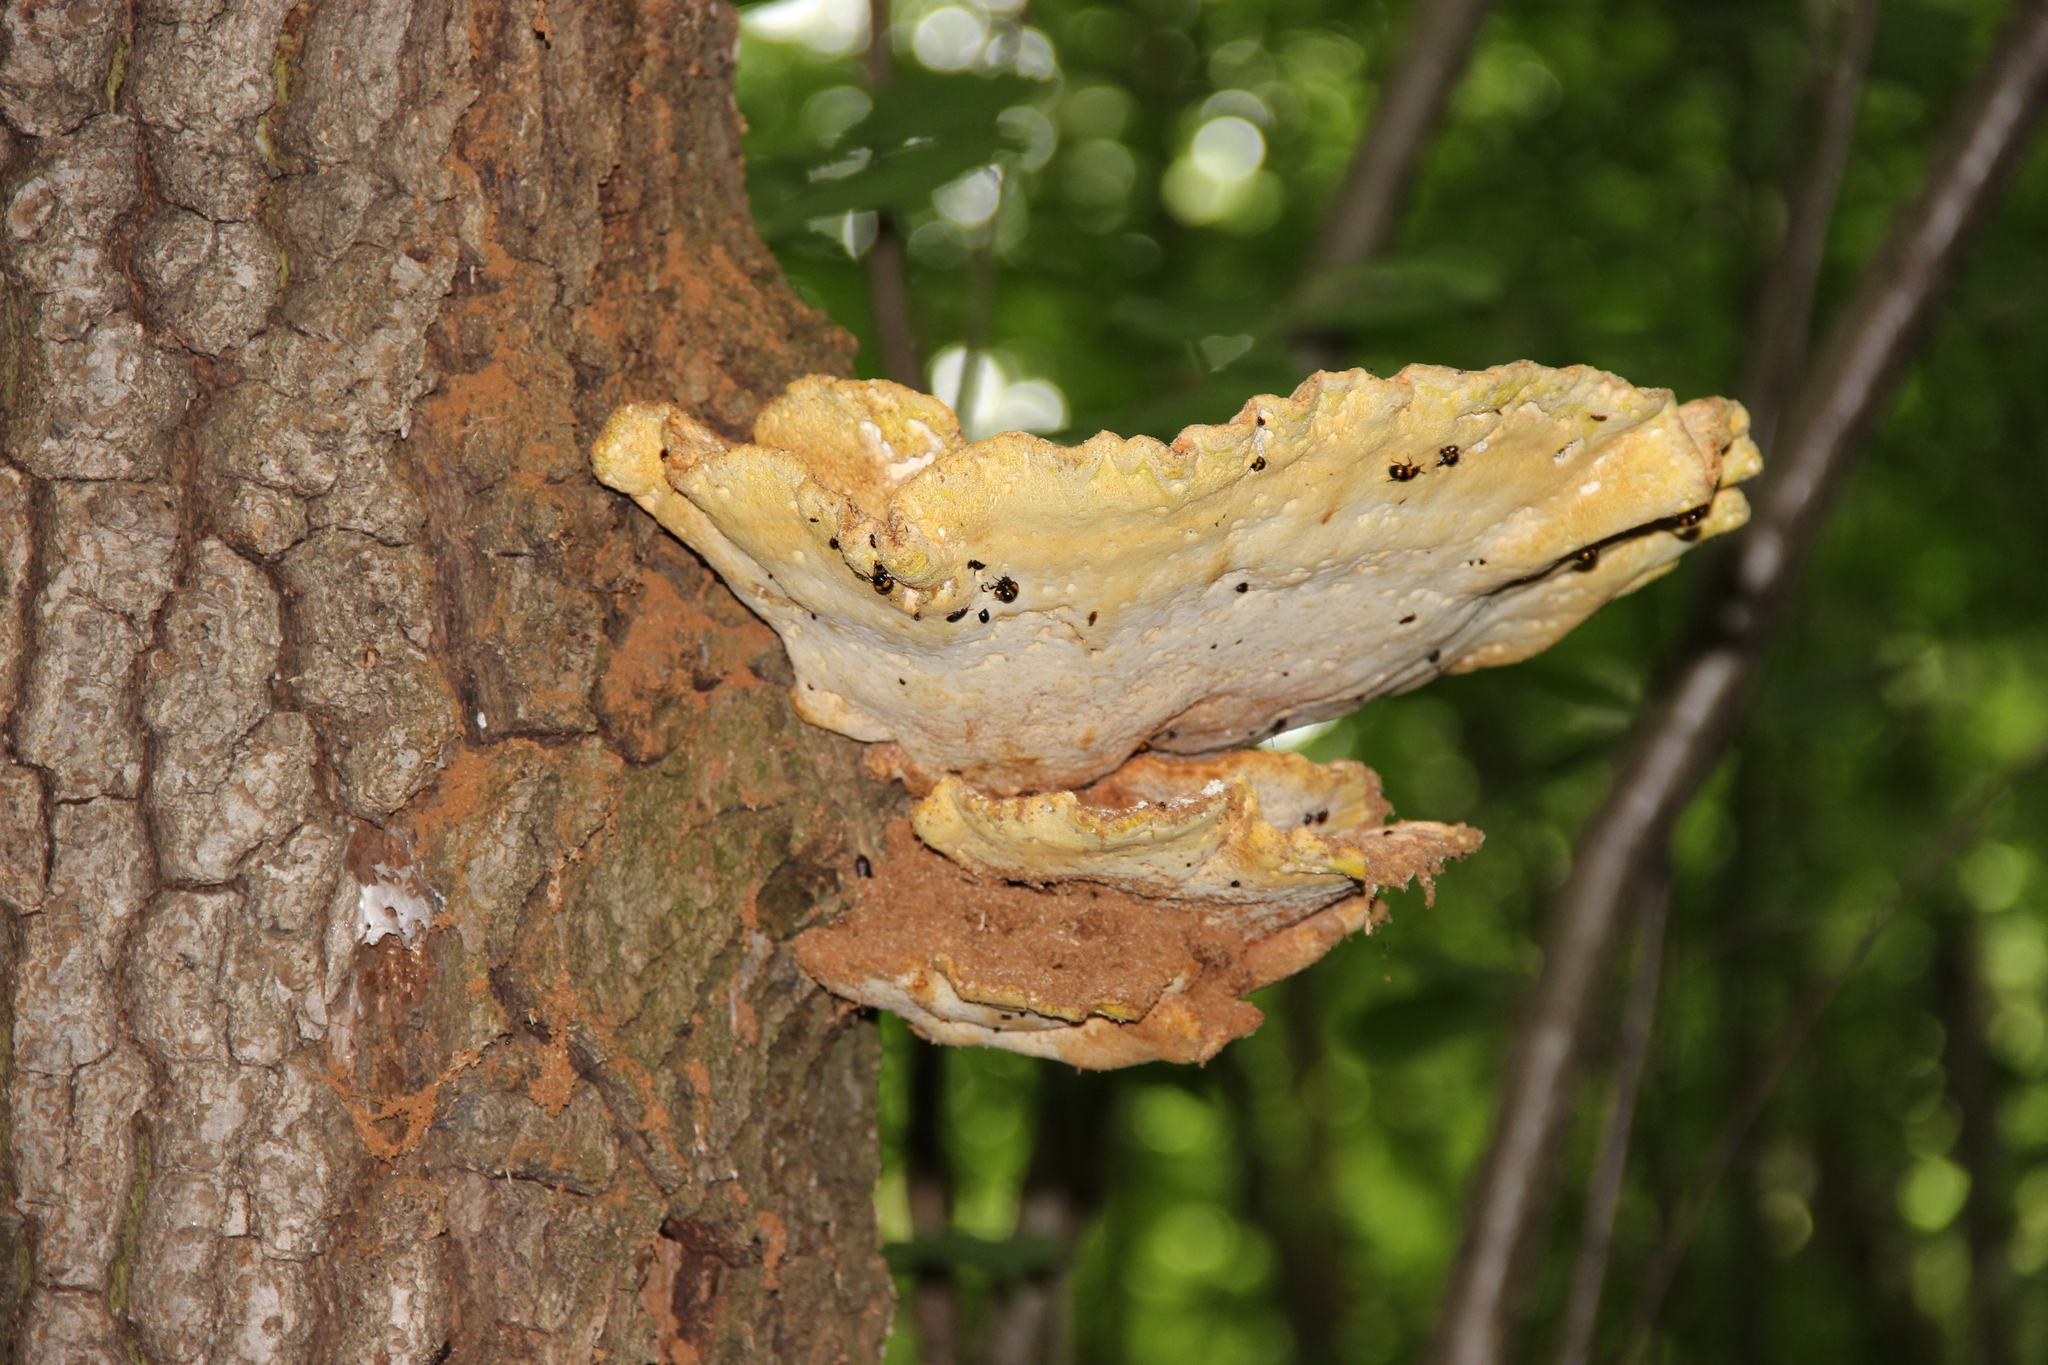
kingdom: Fungi
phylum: Basidiomycota
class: Agaricomycetes
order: Polyporales
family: Laetiporaceae
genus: Laetiporus
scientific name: Laetiporus sulphureus
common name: Chicken of the woods
